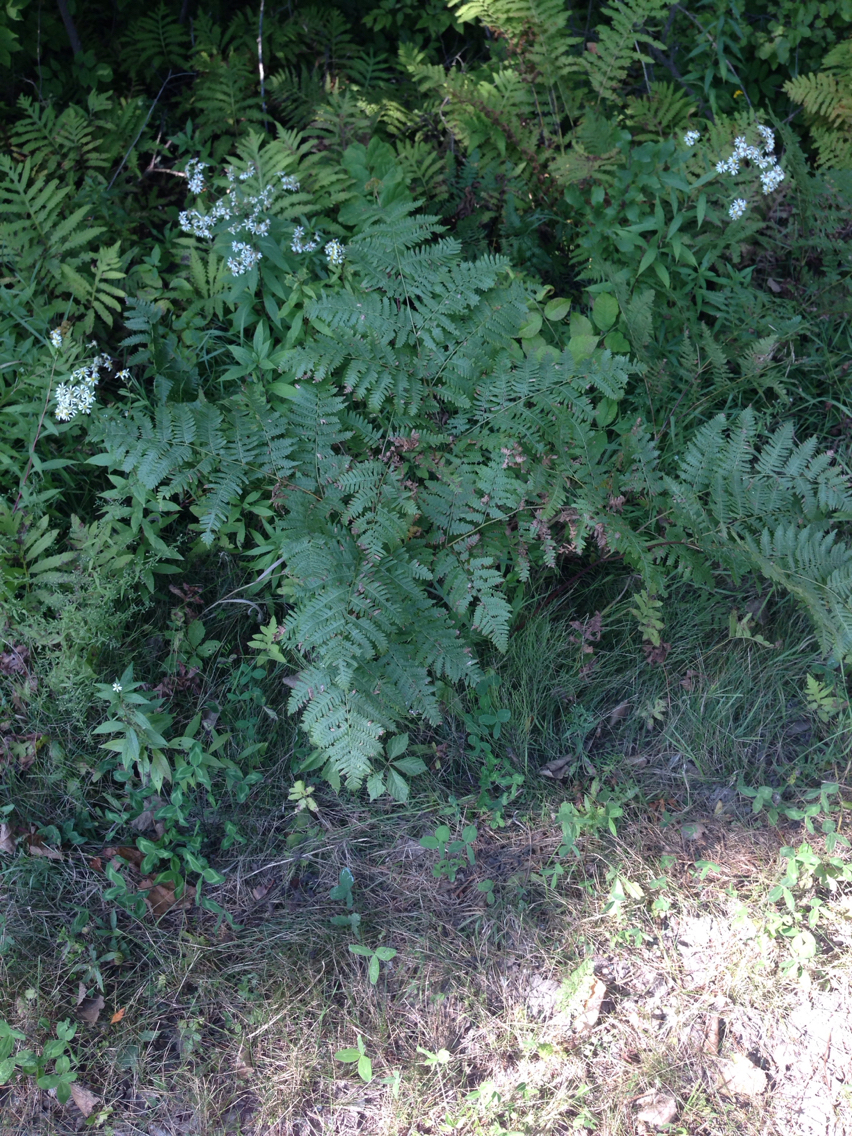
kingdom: Plantae
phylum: Tracheophyta
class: Polypodiopsida
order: Polypodiales
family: Dennstaedtiaceae
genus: Pteridium
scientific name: Pteridium aquilinum
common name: Bracken
